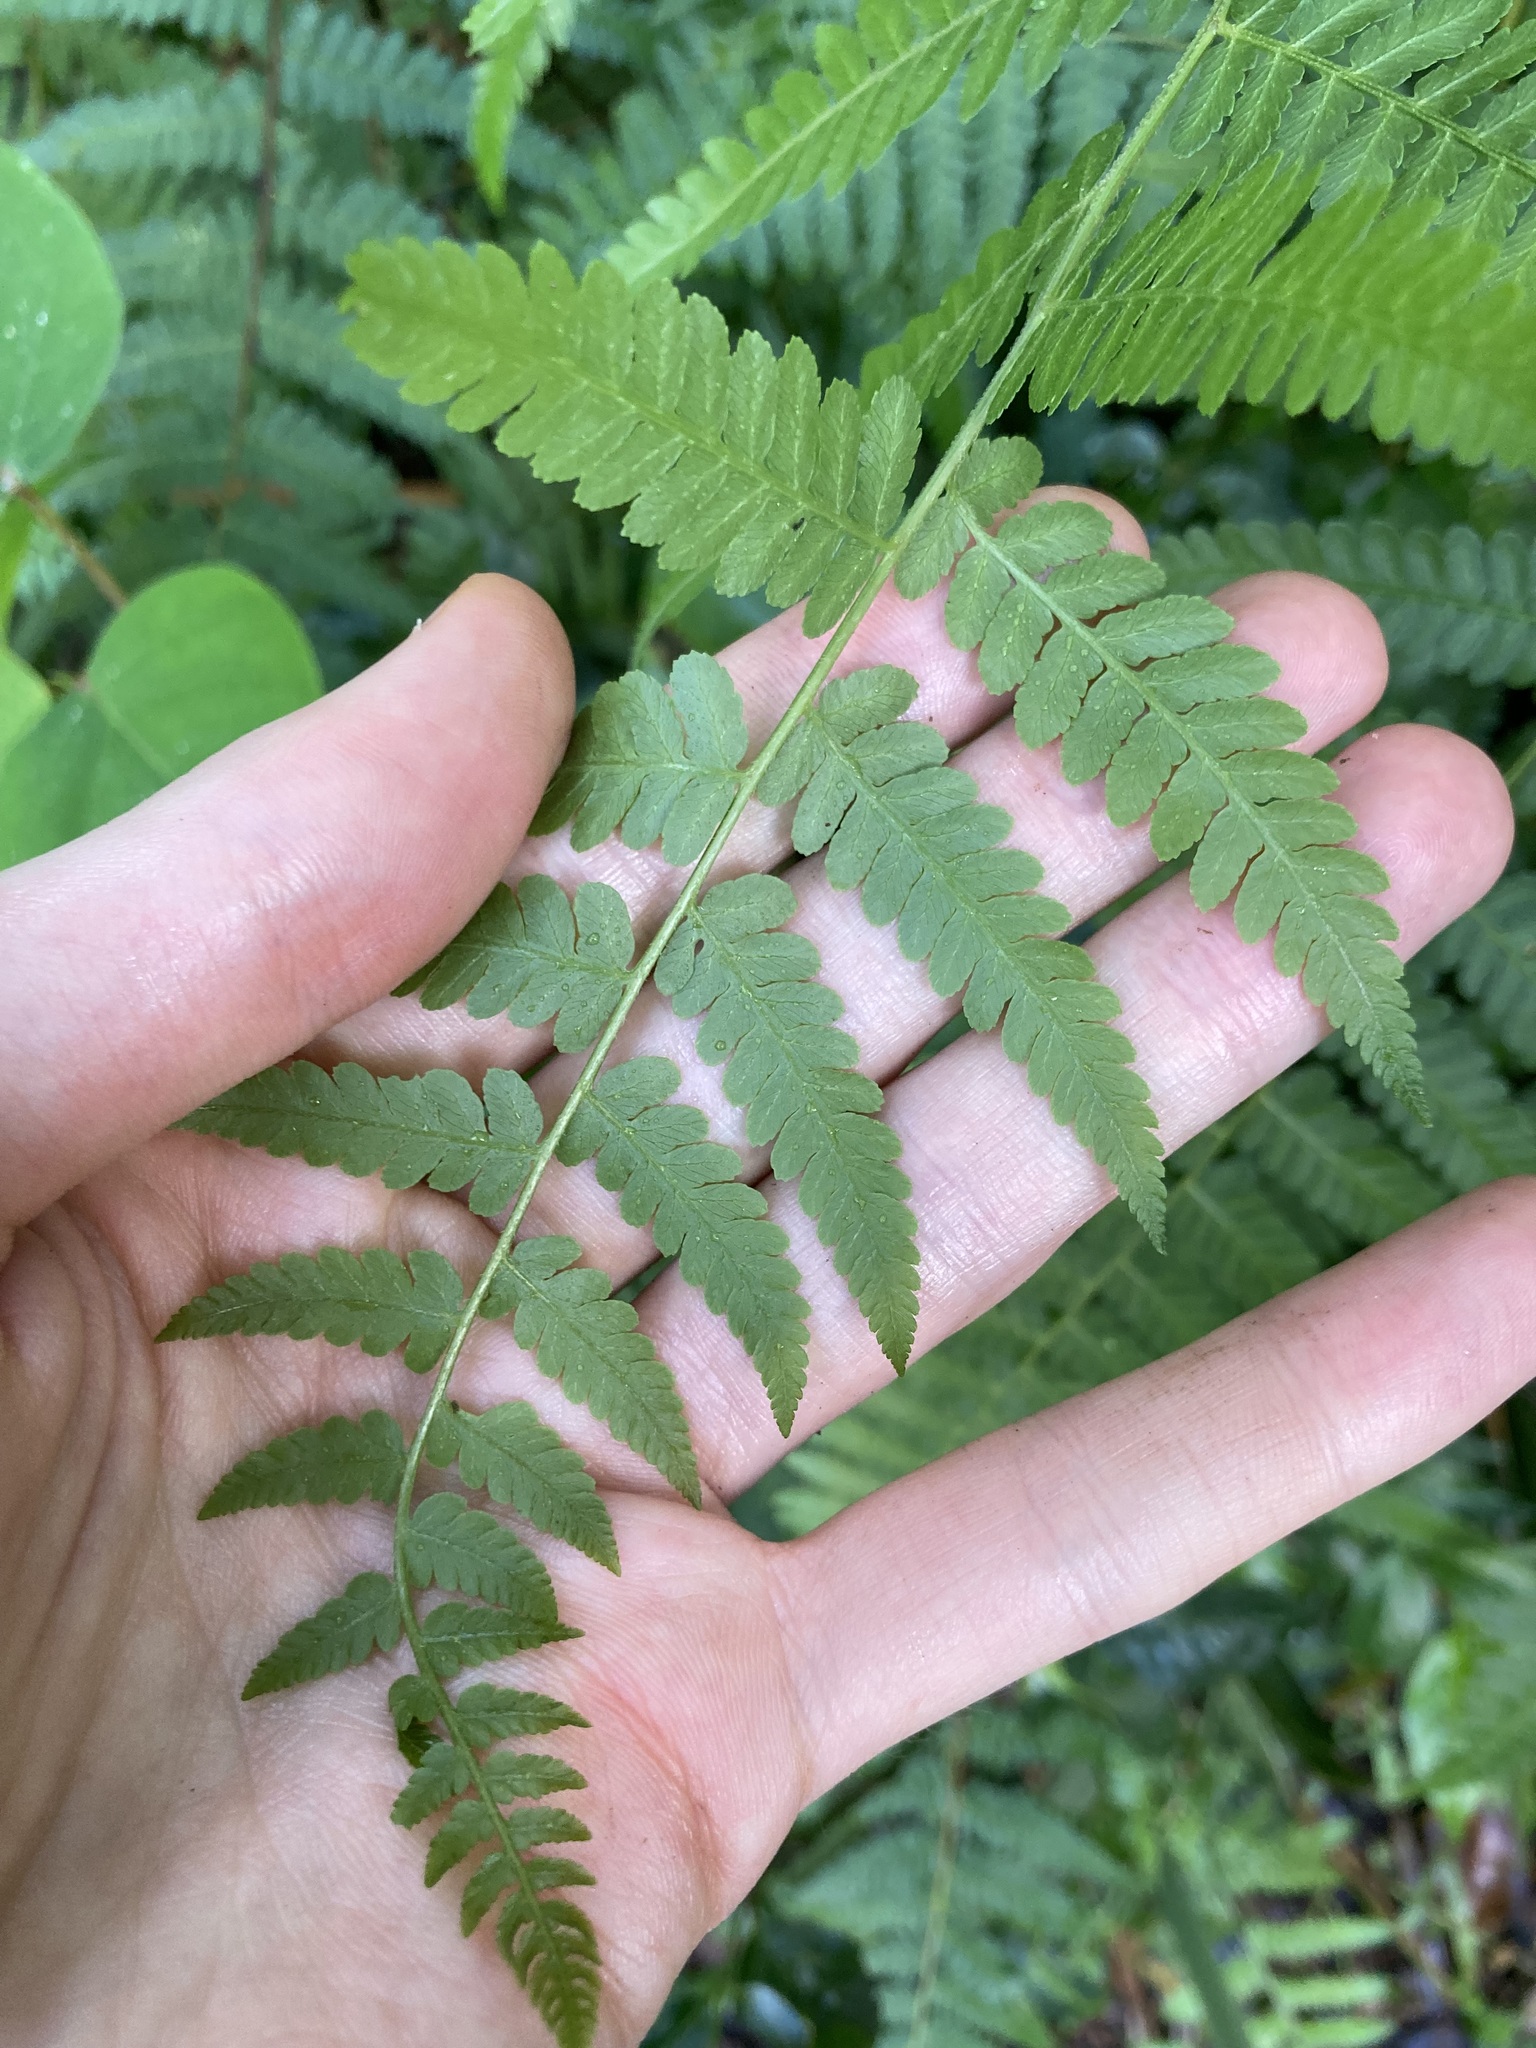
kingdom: Plantae
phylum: Tracheophyta
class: Polypodiopsida
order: Polypodiales
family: Dennstaedtiaceae
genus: Hypolepis
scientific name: Hypolepis muelleri
